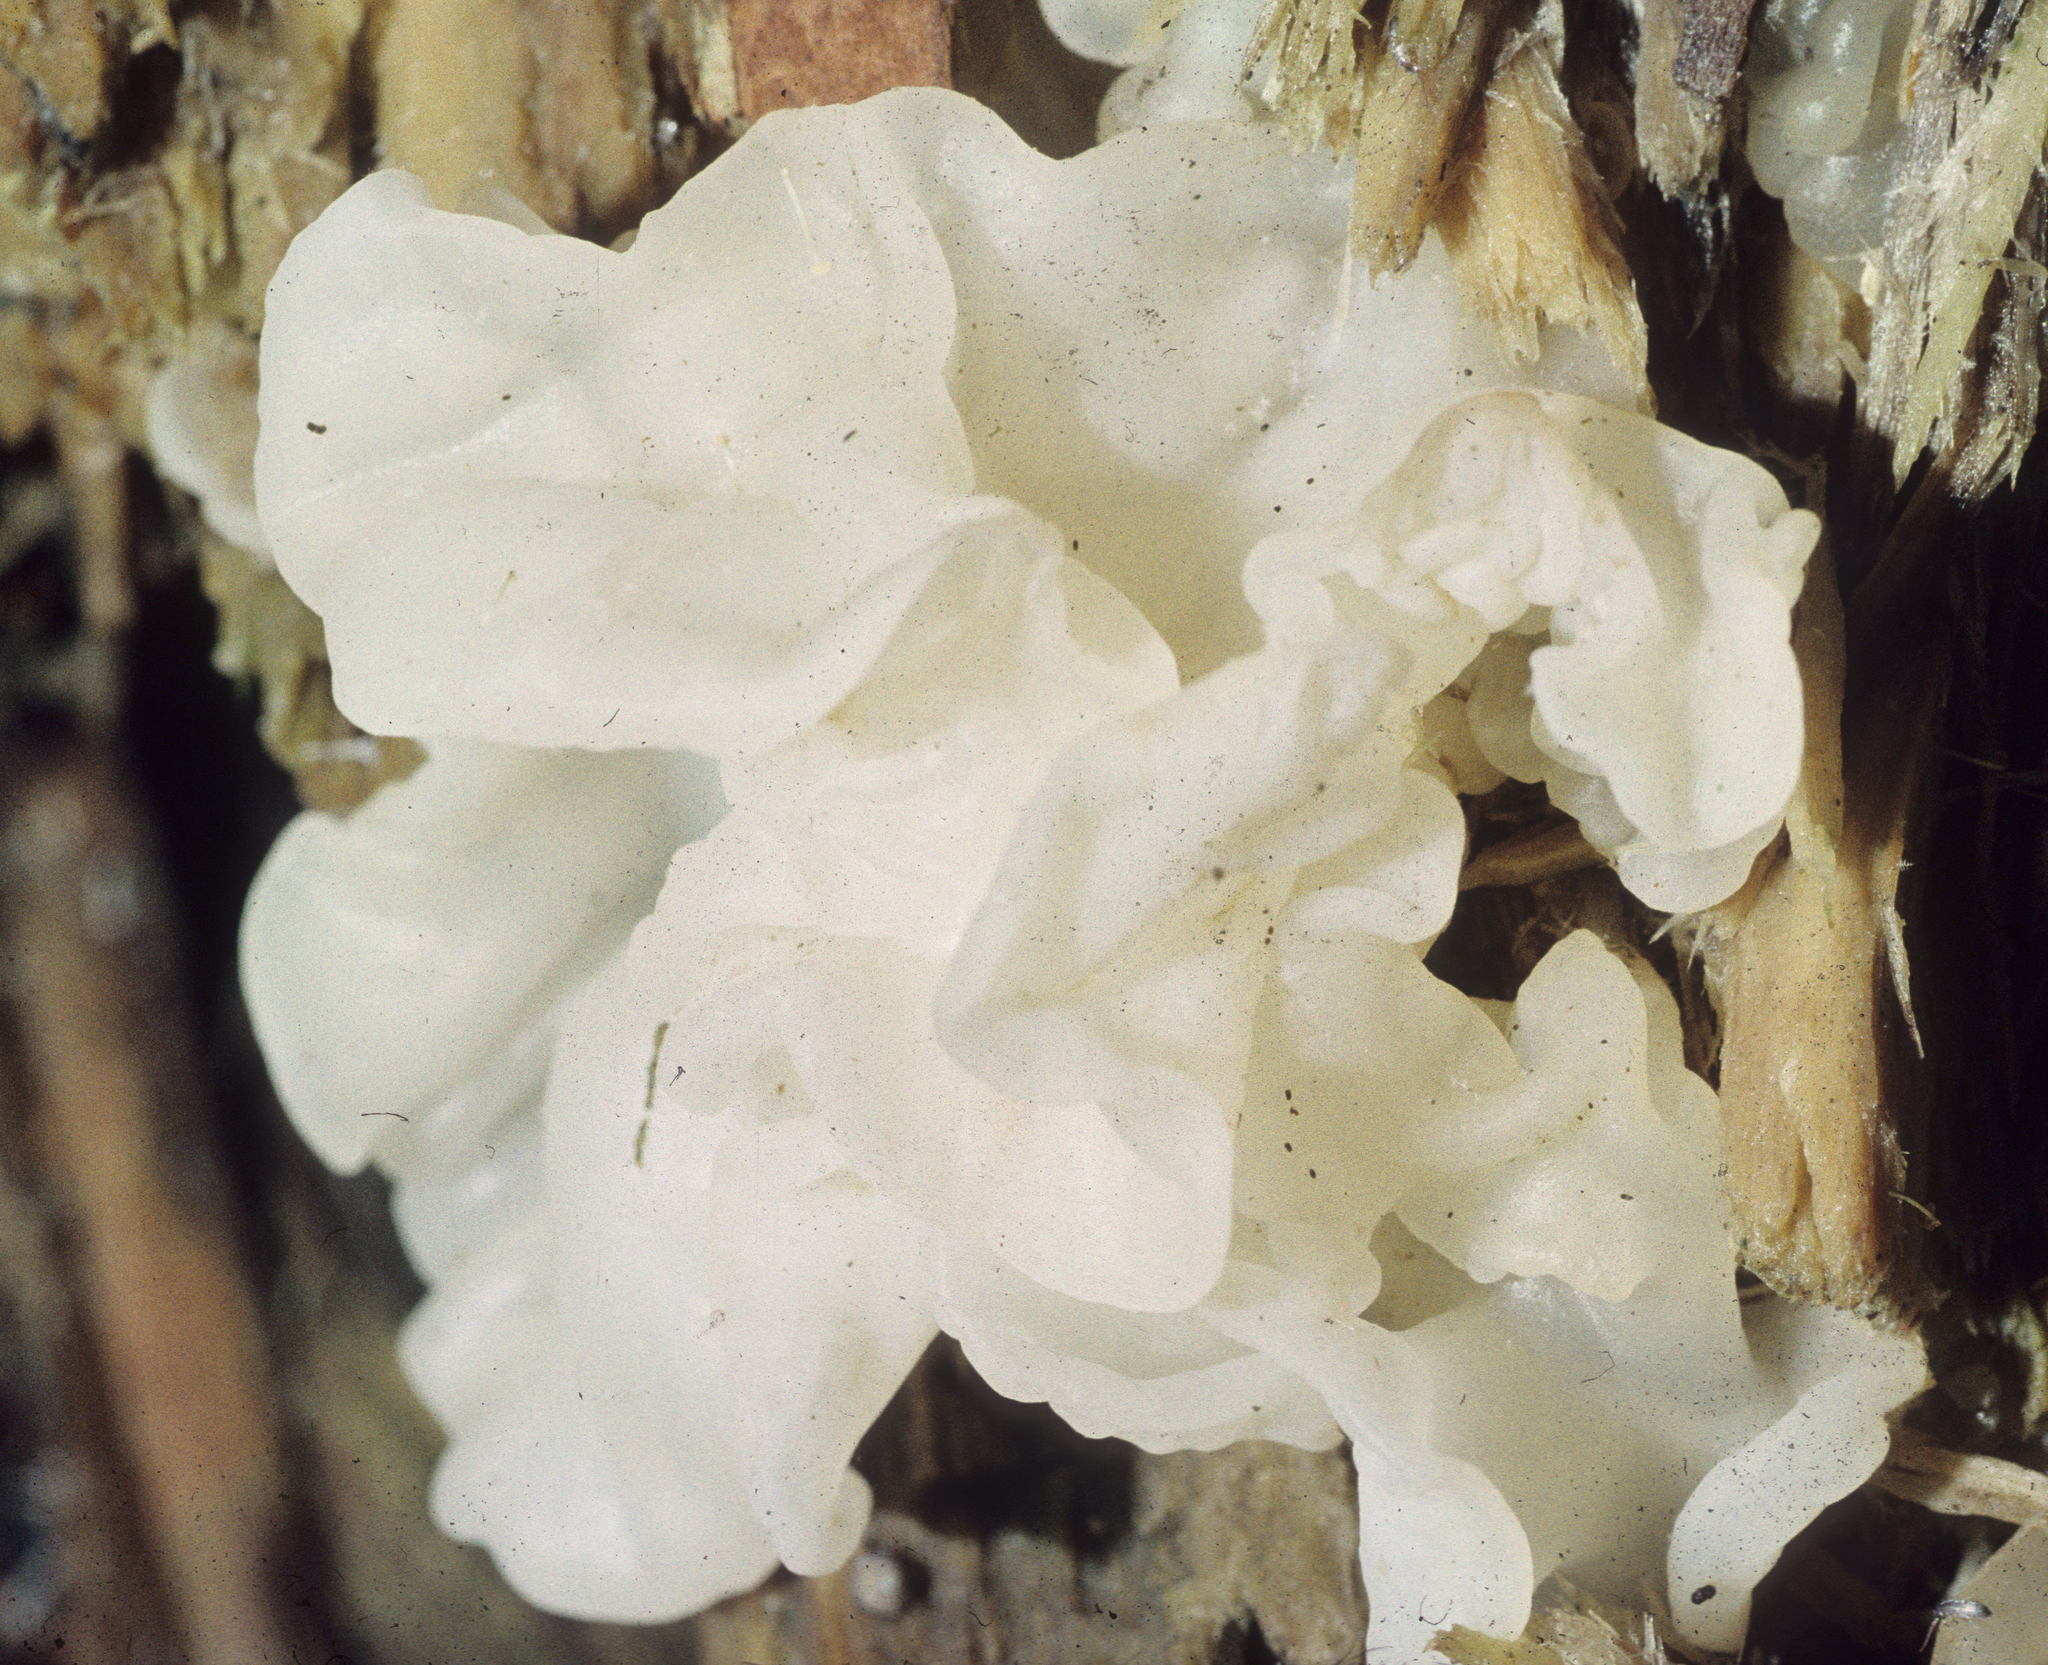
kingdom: Fungi
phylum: Basidiomycota
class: Agaricomycetes
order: Auriculariales
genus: Ductifera
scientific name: Ductifera pululahuana
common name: White jelly fungus
